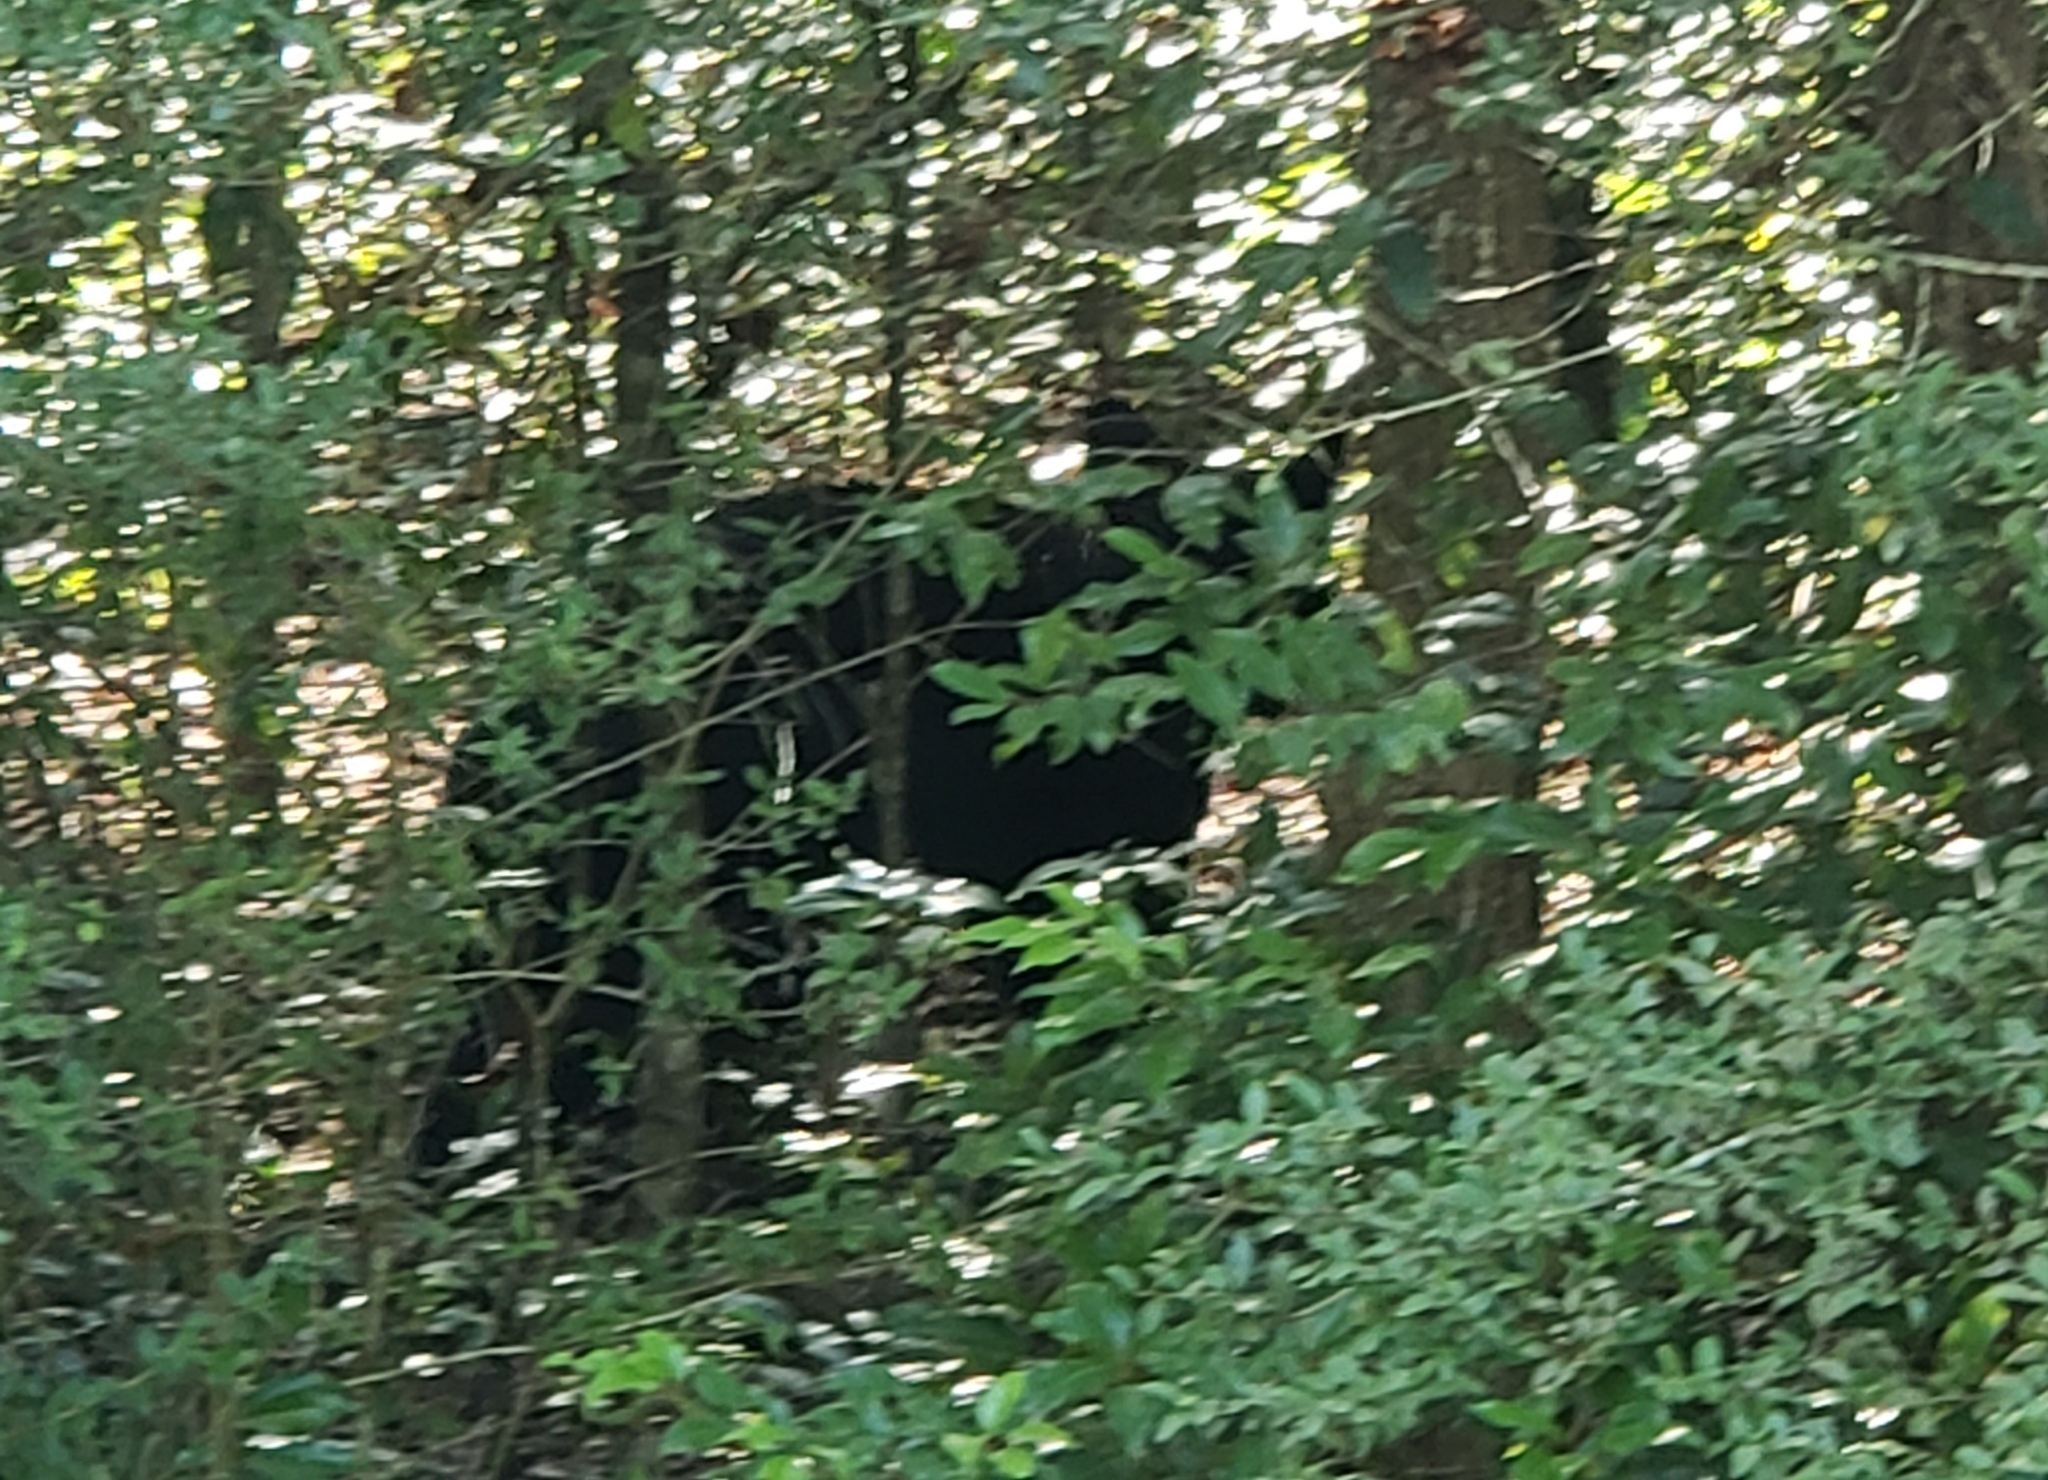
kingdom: Animalia
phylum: Chordata
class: Mammalia
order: Carnivora
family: Ursidae
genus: Ursus
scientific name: Ursus americanus
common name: American black bear
